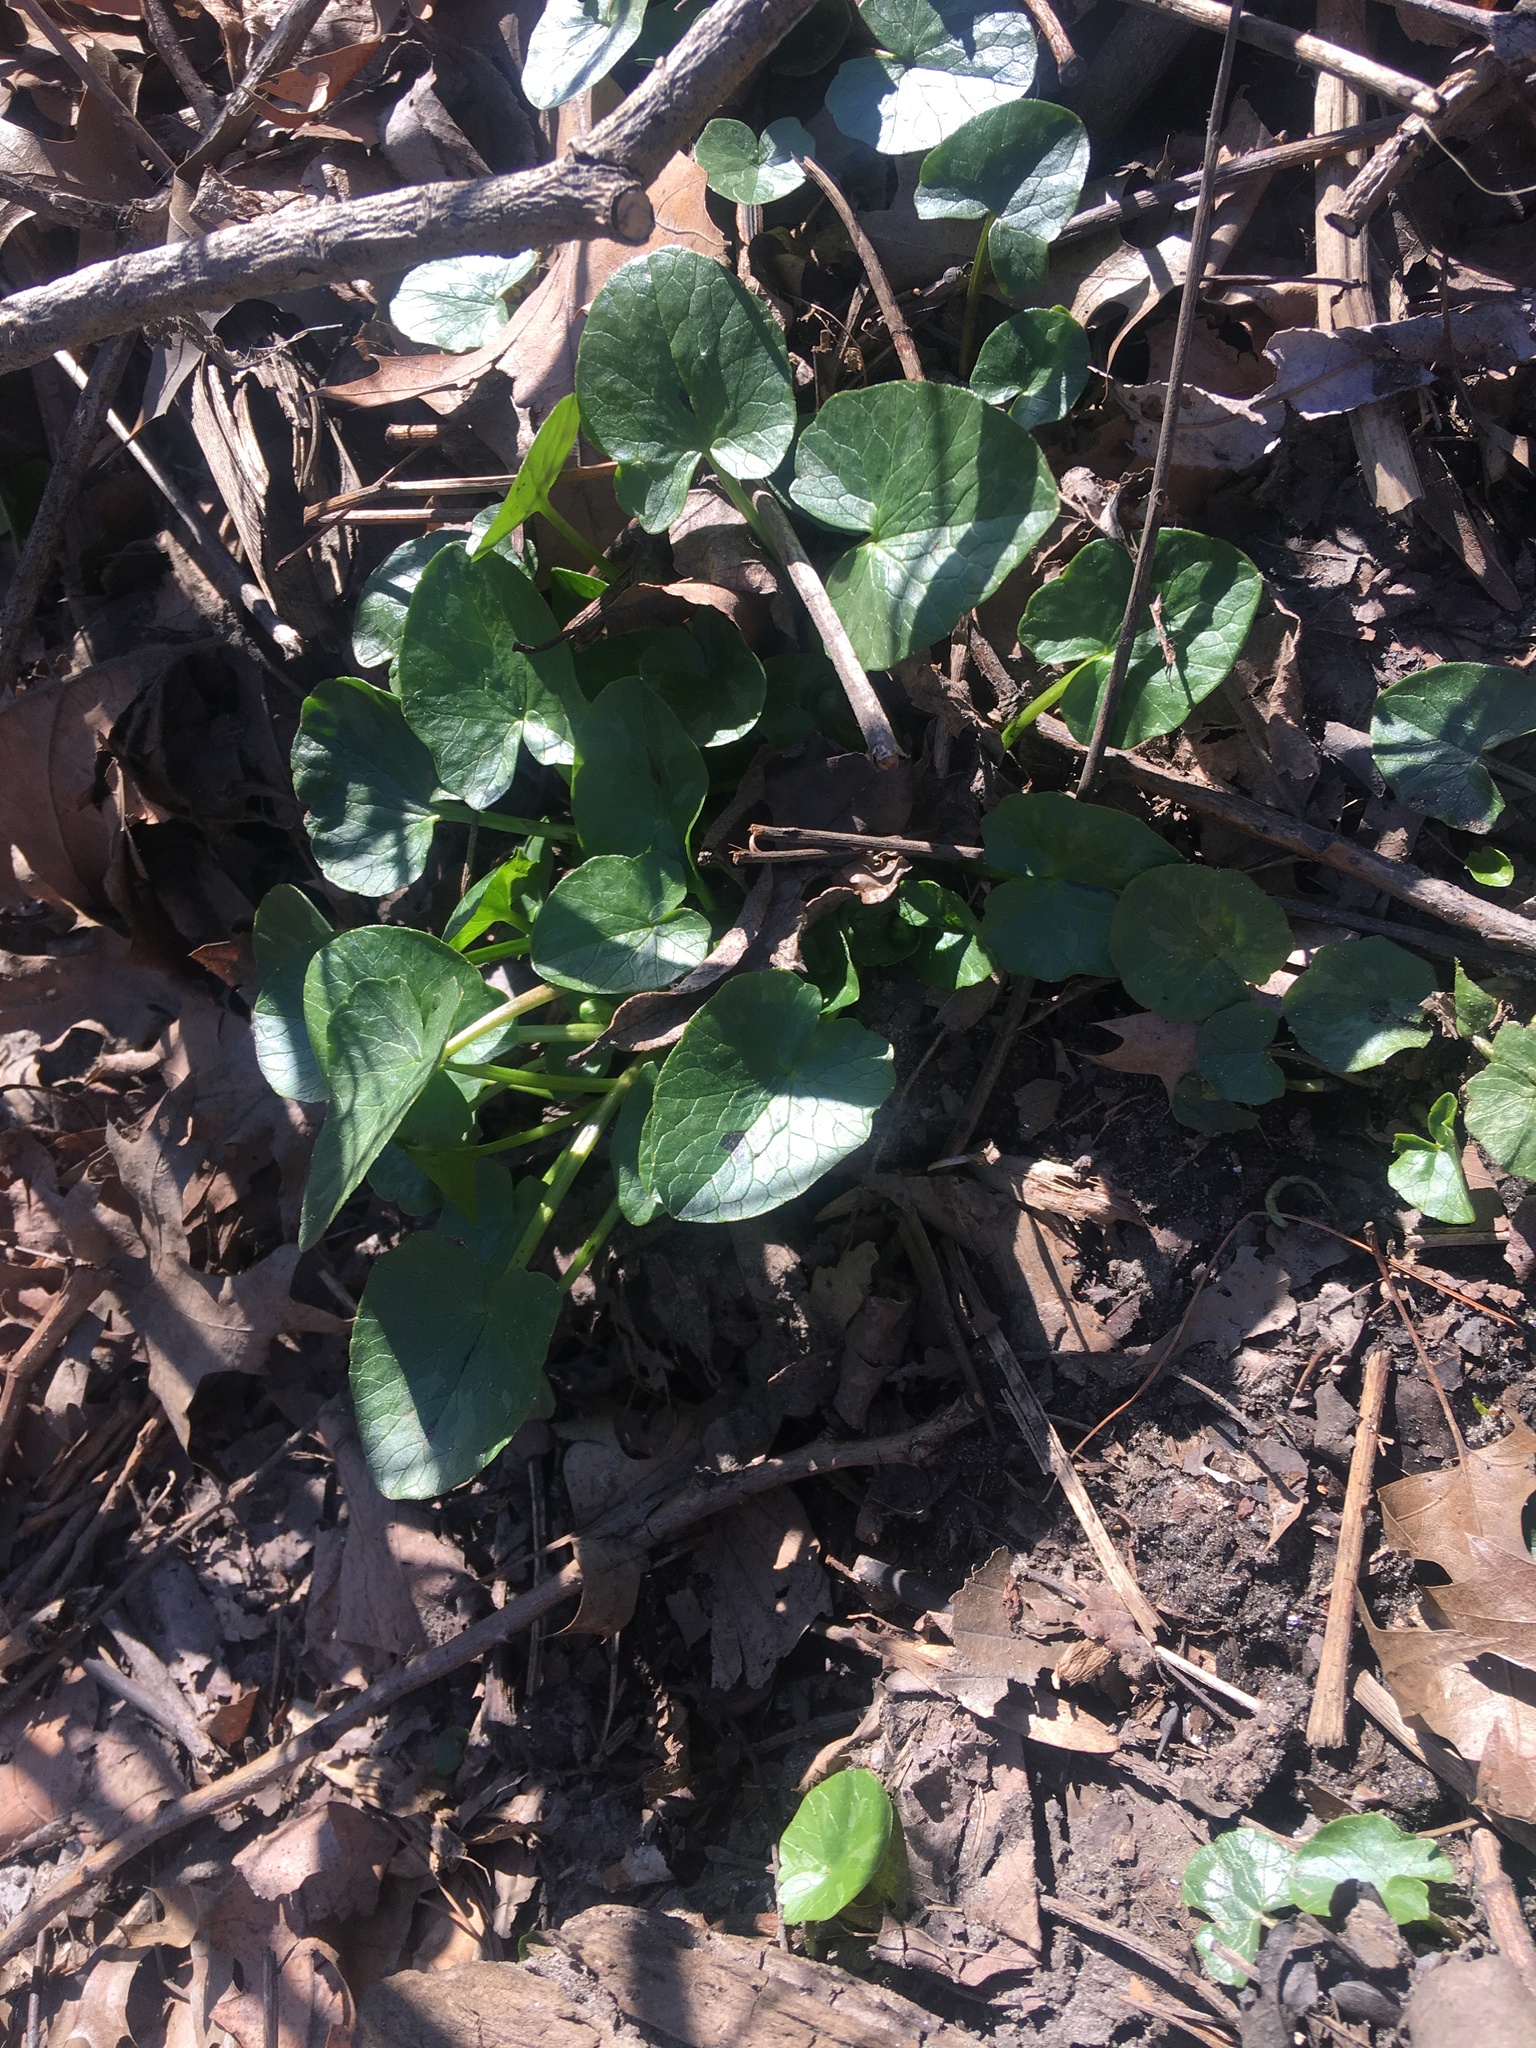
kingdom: Plantae
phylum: Tracheophyta
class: Magnoliopsida
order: Ranunculales
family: Ranunculaceae
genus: Ficaria
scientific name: Ficaria verna
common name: Lesser celandine
